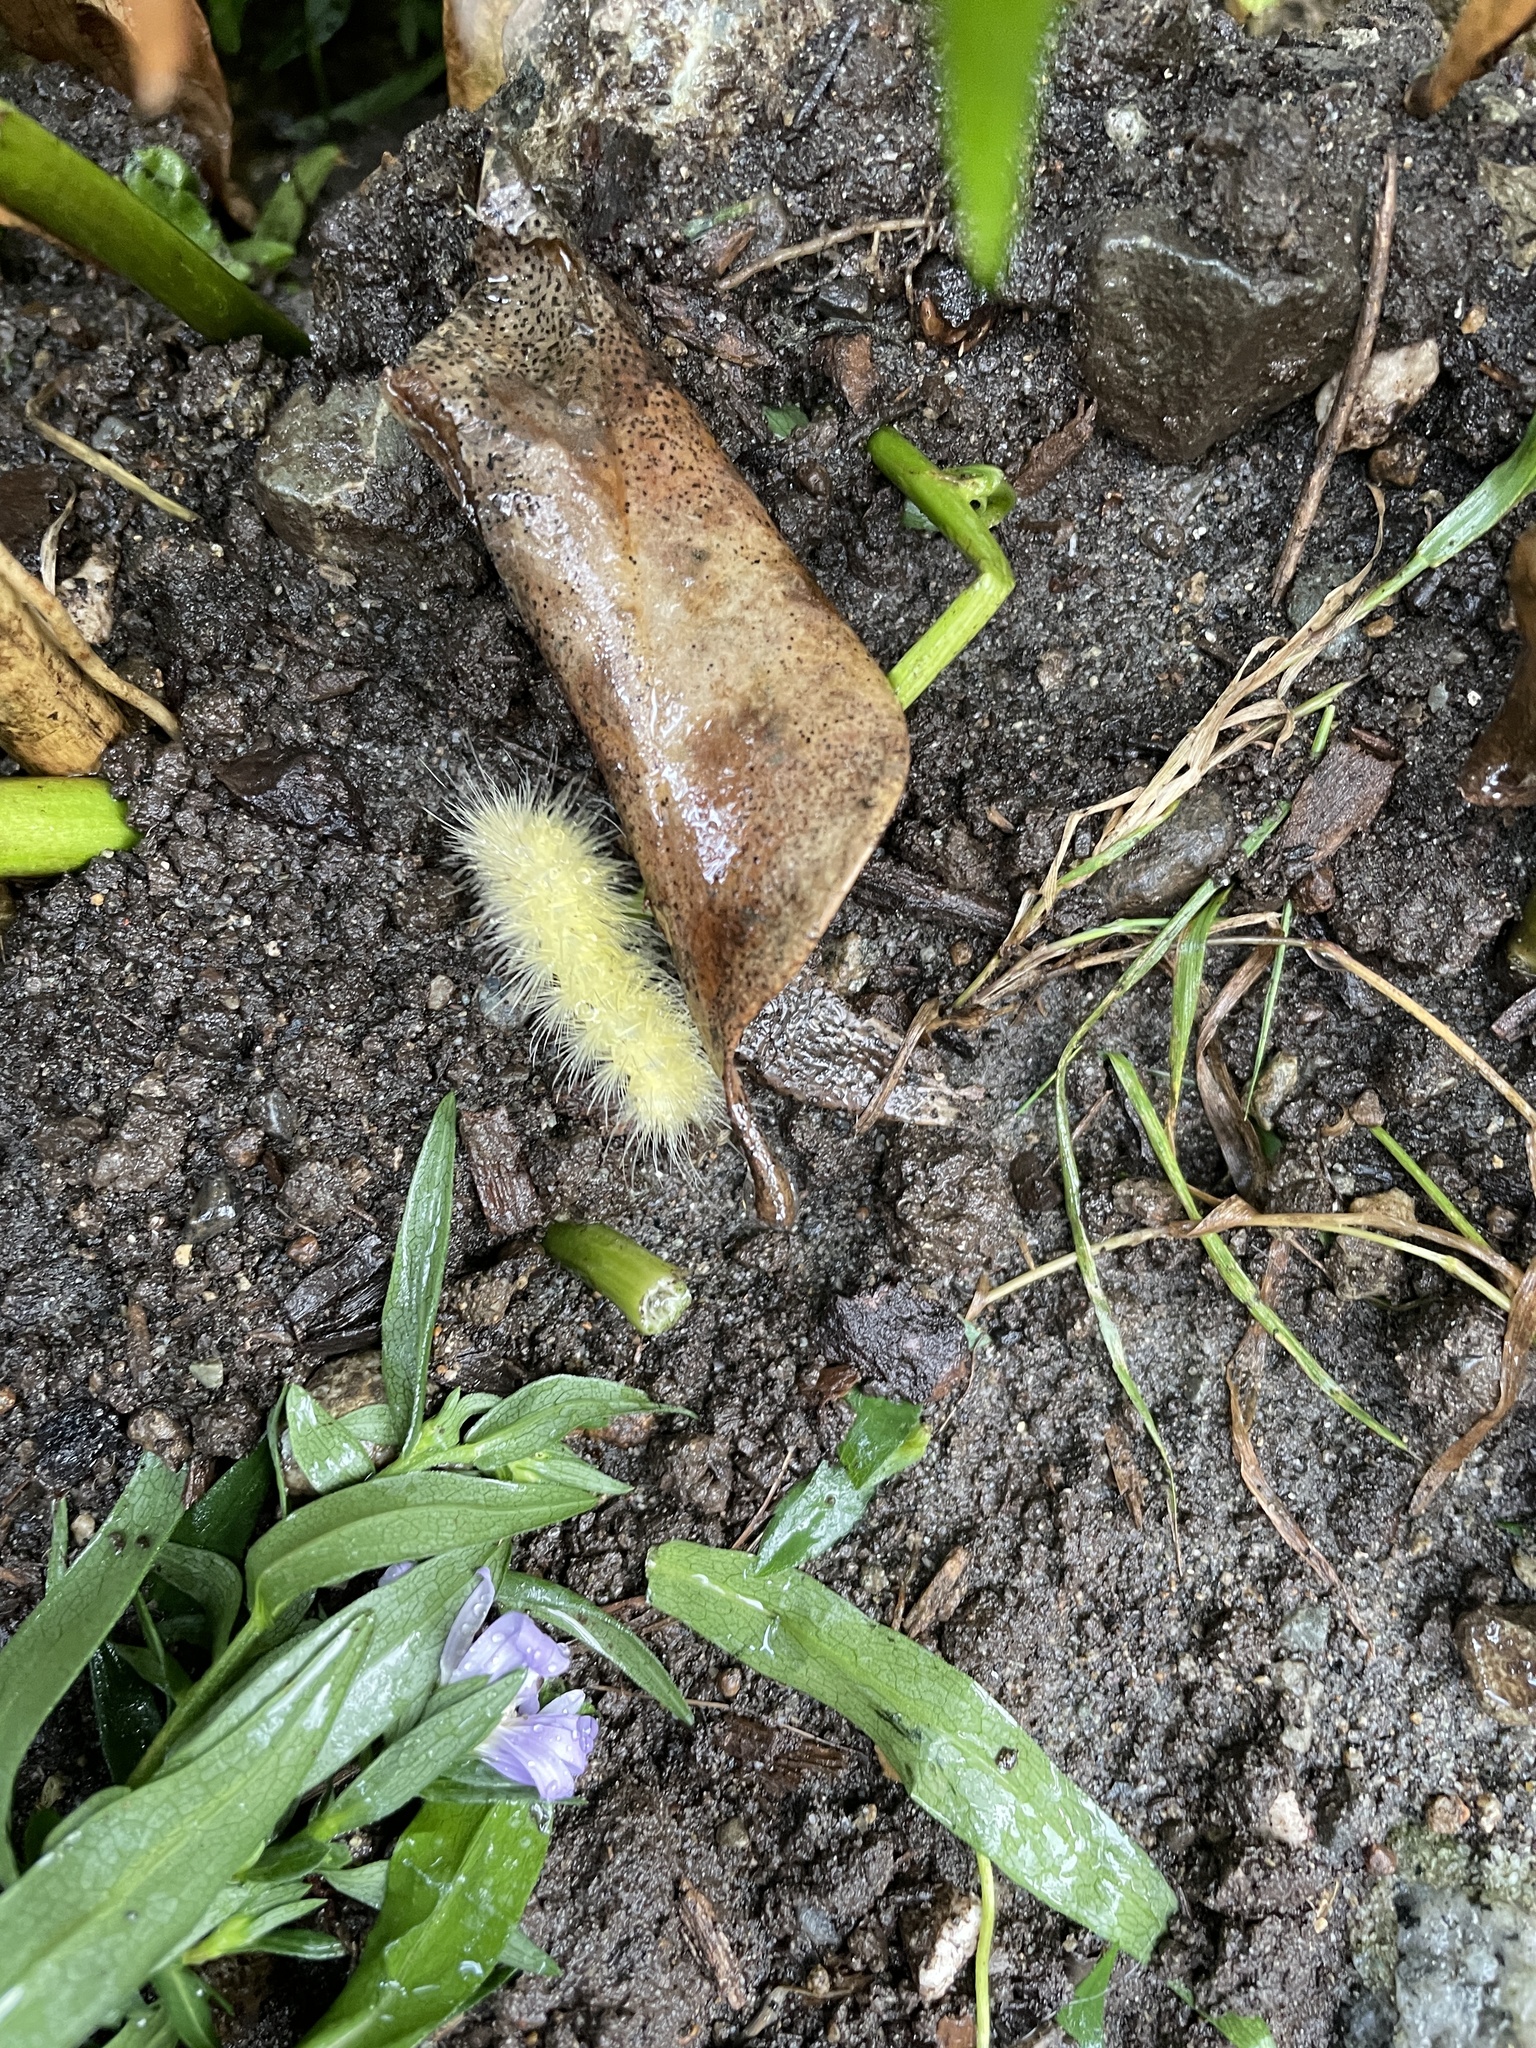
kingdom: Animalia
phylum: Arthropoda
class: Insecta
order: Lepidoptera
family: Erebidae
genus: Spilosoma
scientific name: Spilosoma virginica
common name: Virginia tiger moth
